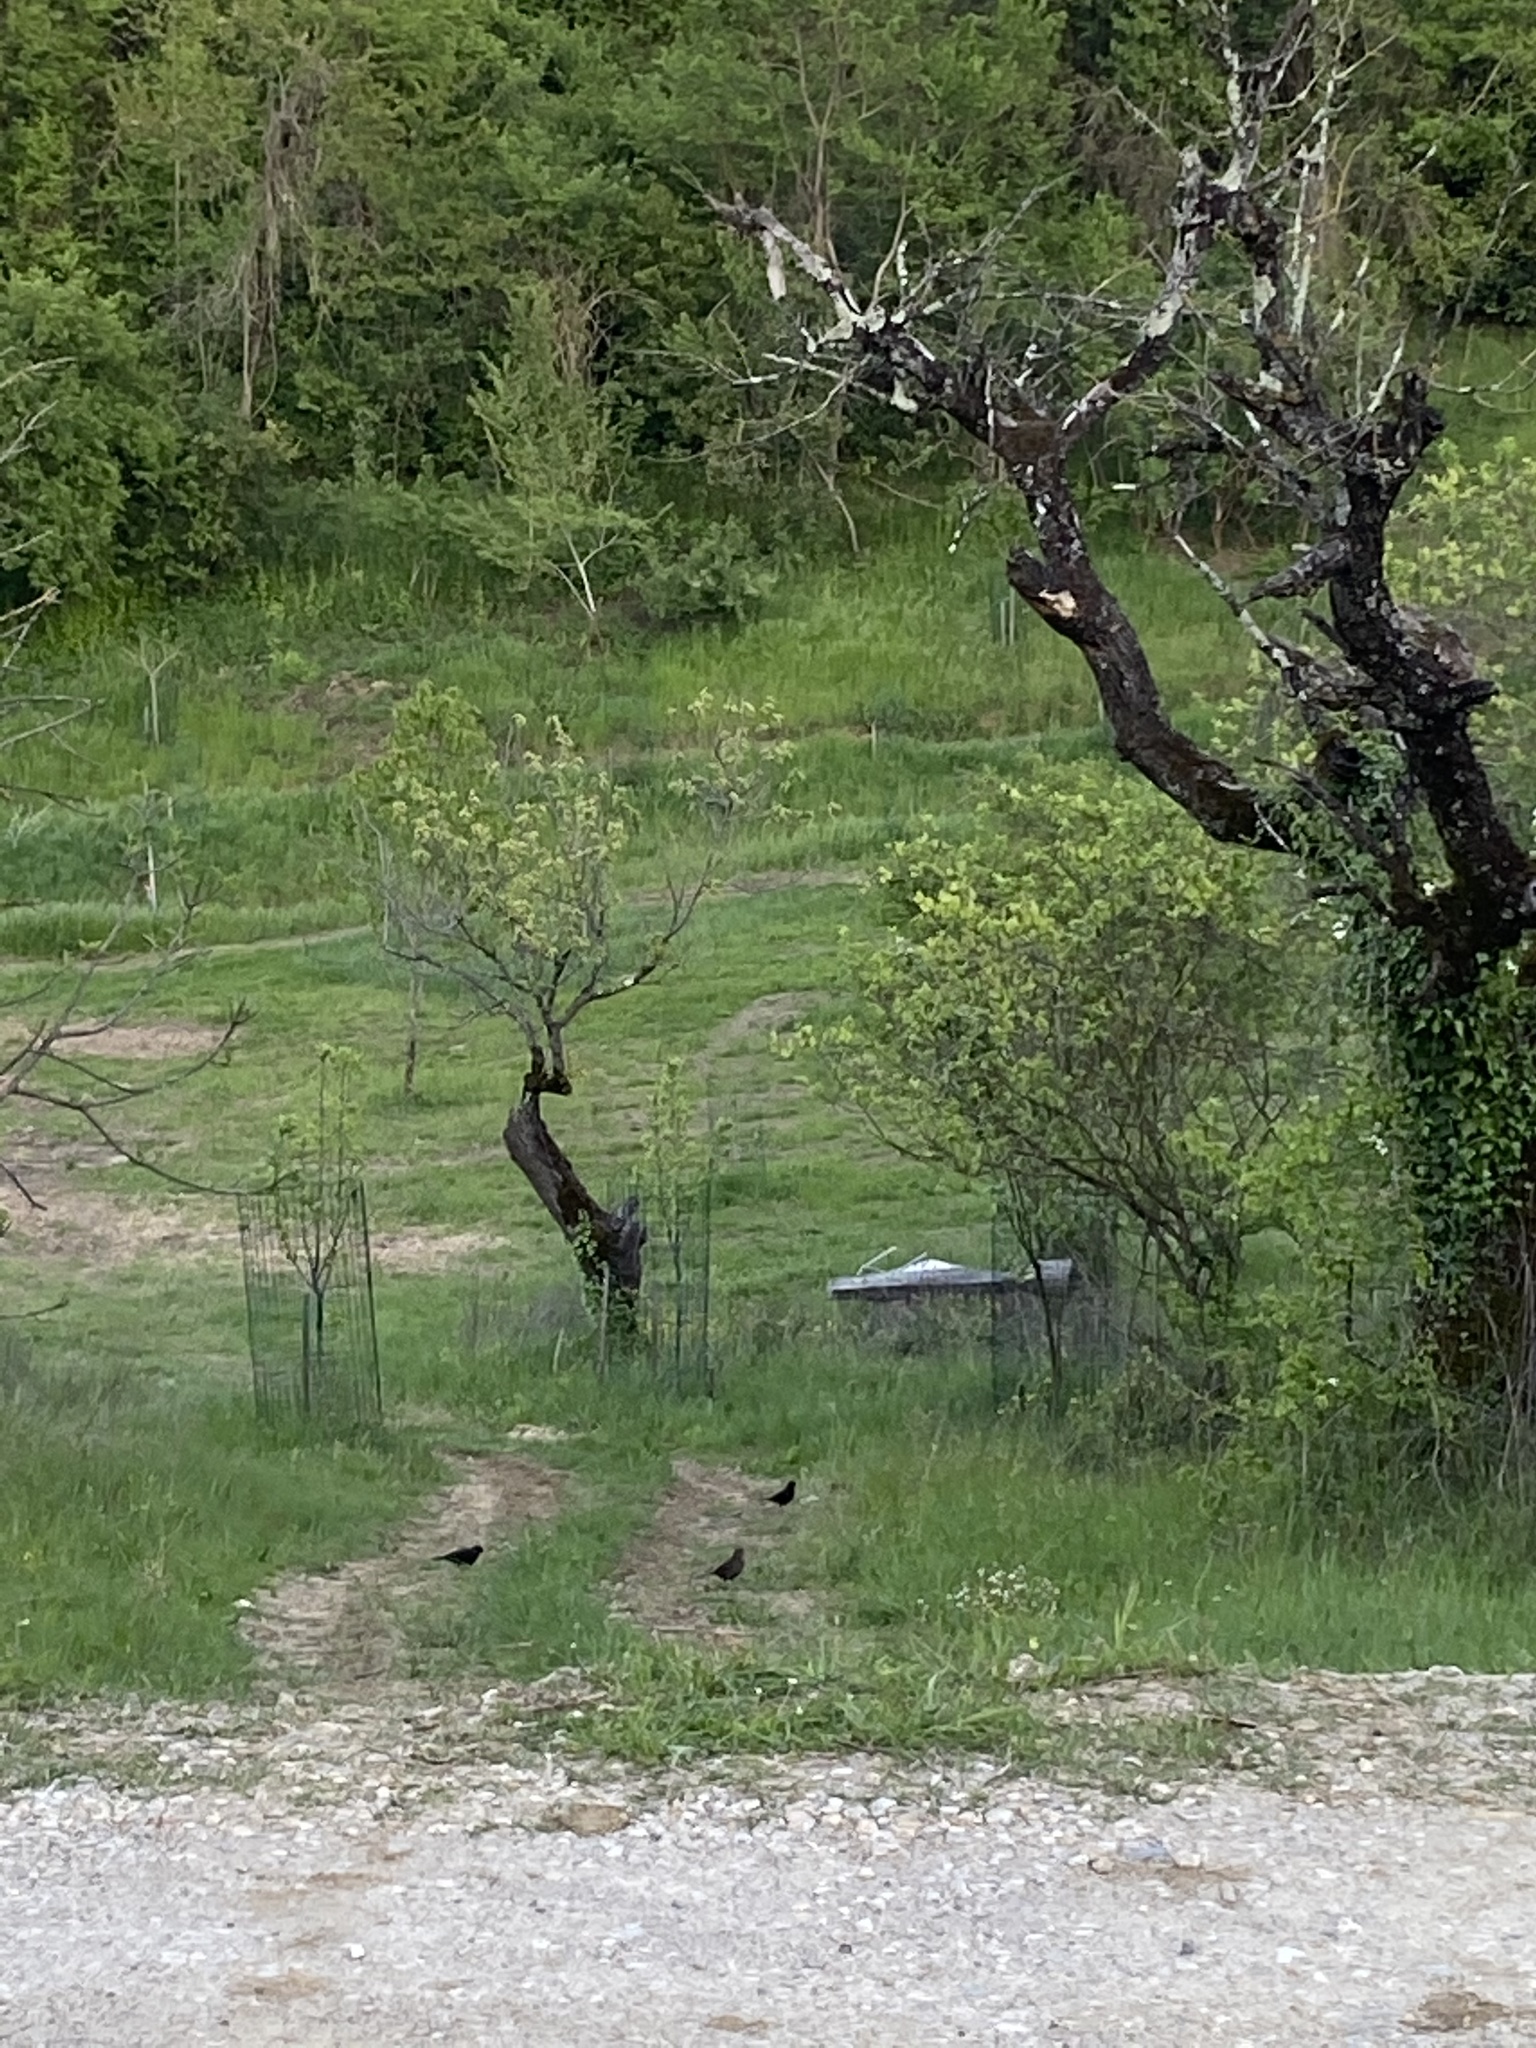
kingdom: Animalia
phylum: Chordata
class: Aves
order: Passeriformes
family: Turdidae
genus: Turdus
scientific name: Turdus merula
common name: Common blackbird
